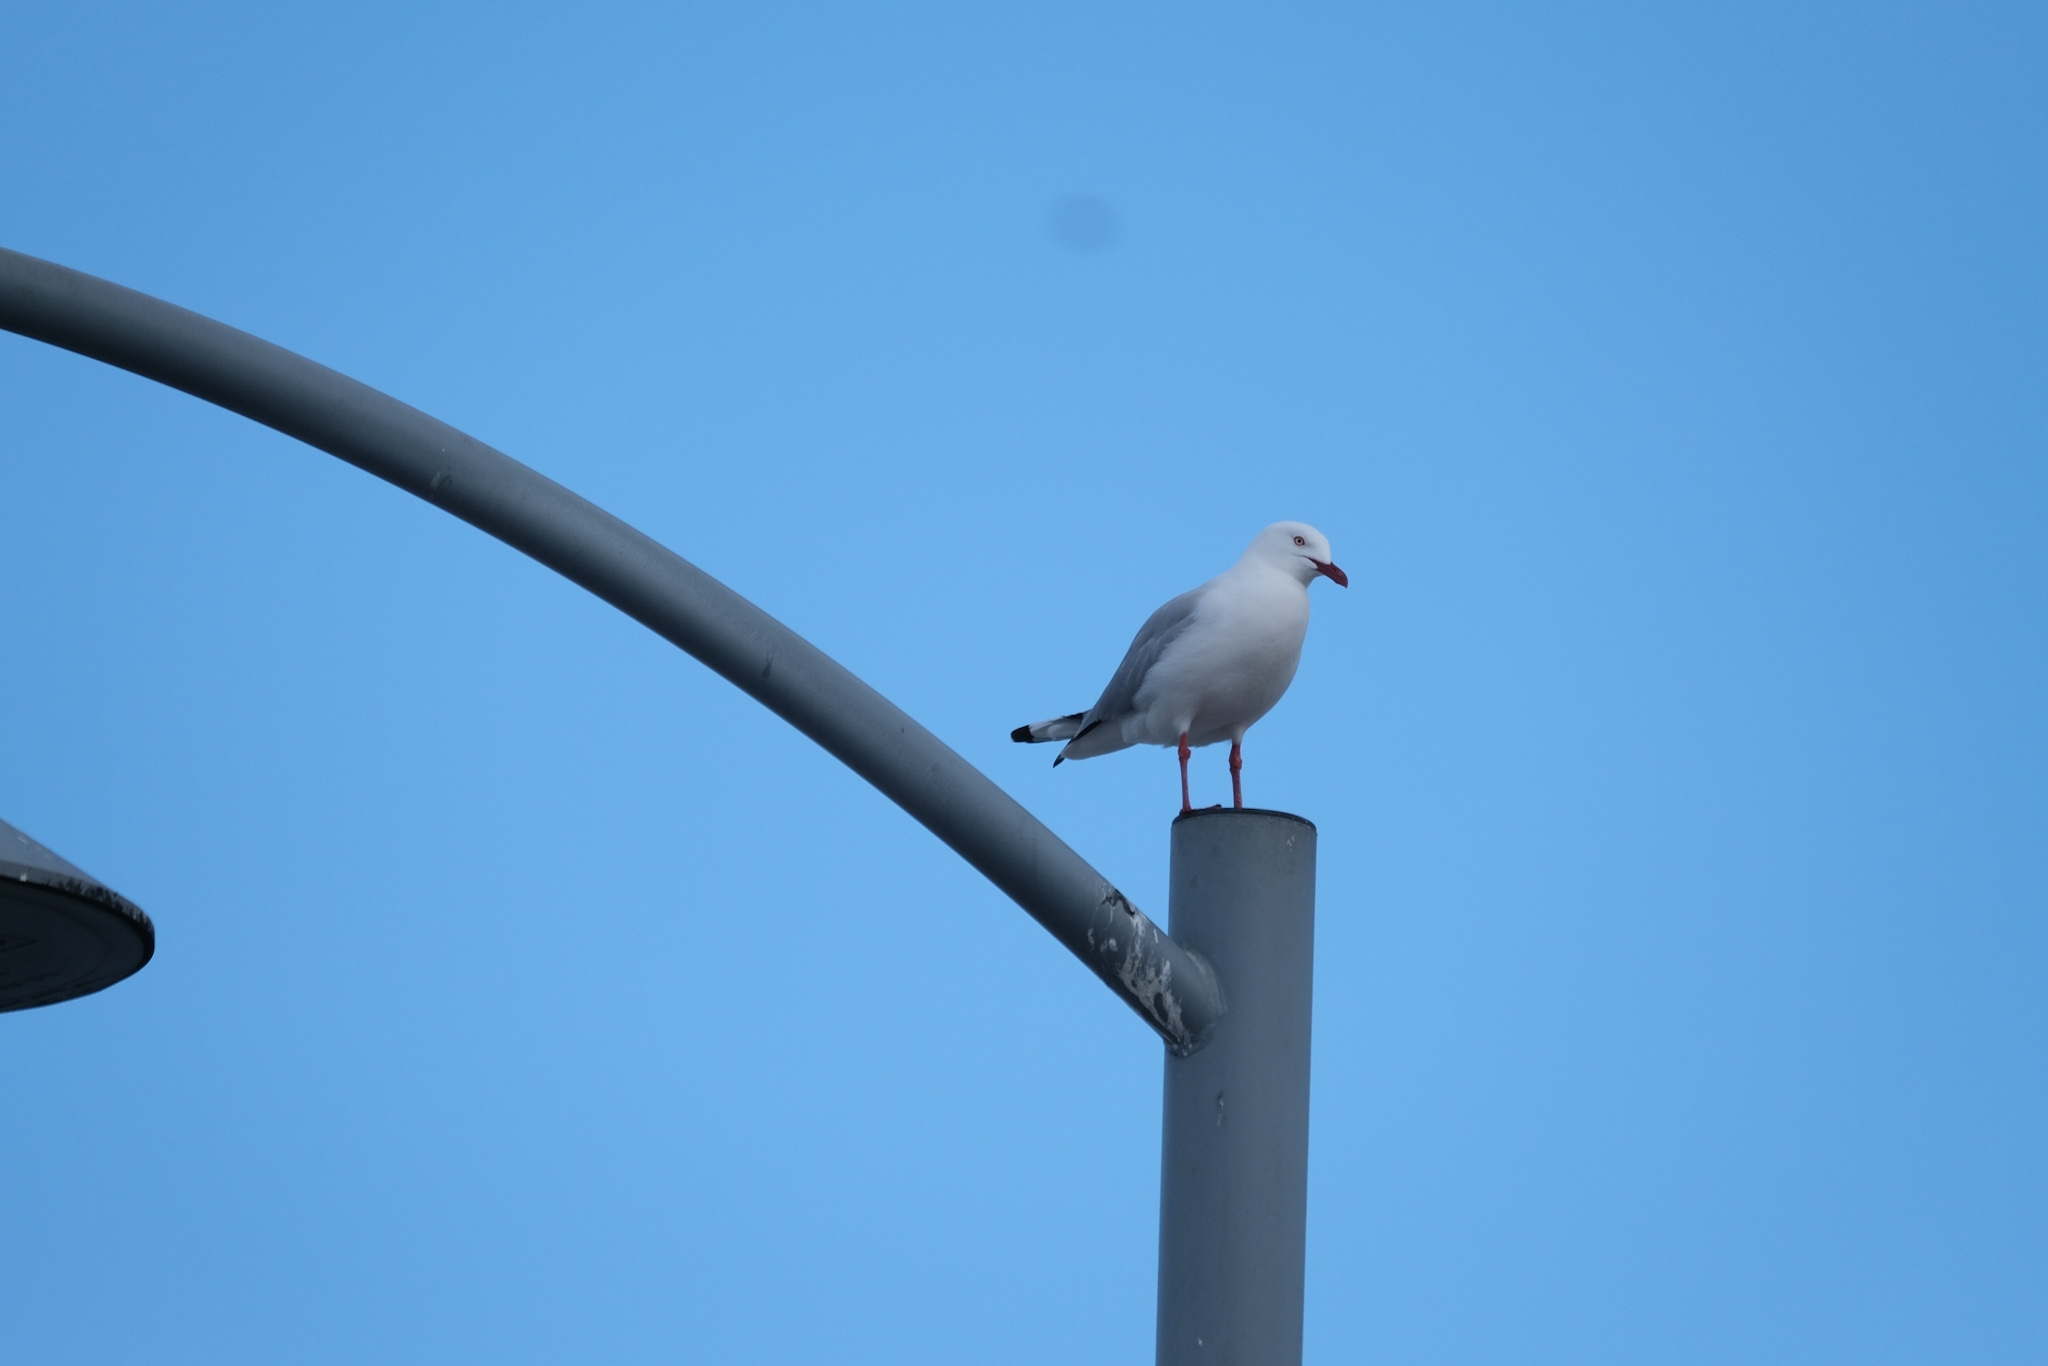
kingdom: Animalia
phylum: Chordata
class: Aves
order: Charadriiformes
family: Laridae
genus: Chroicocephalus
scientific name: Chroicocephalus novaehollandiae
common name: Silver gull
